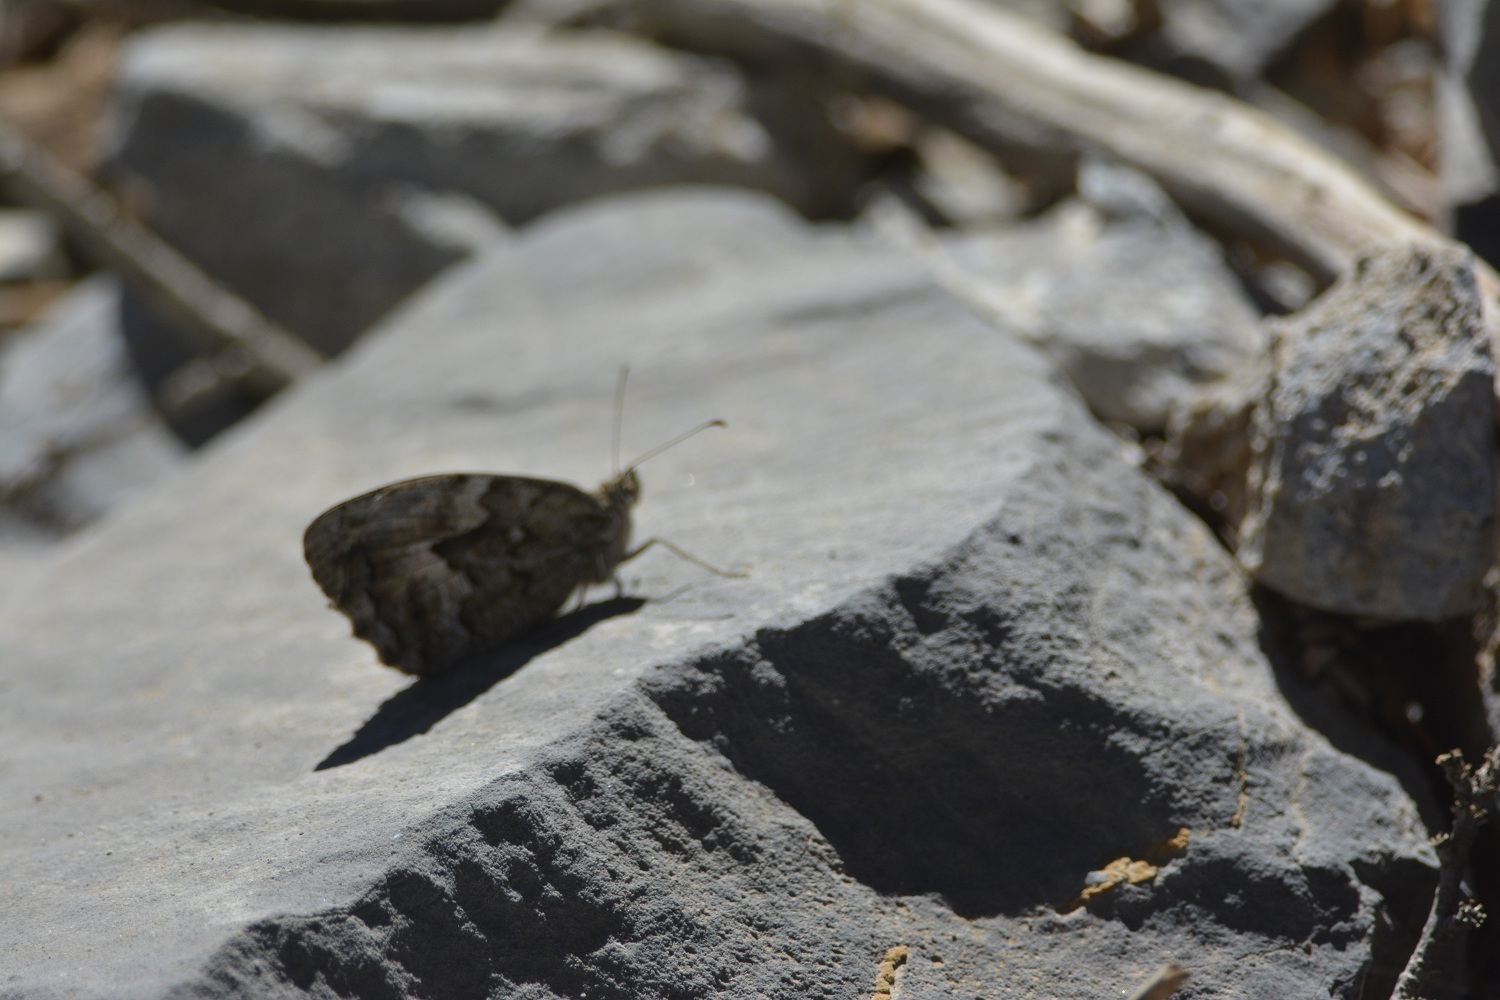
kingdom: Animalia
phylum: Arthropoda
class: Insecta
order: Lepidoptera
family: Nymphalidae
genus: Hipparchia
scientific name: Hipparchia algirica
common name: Mountain grayling
